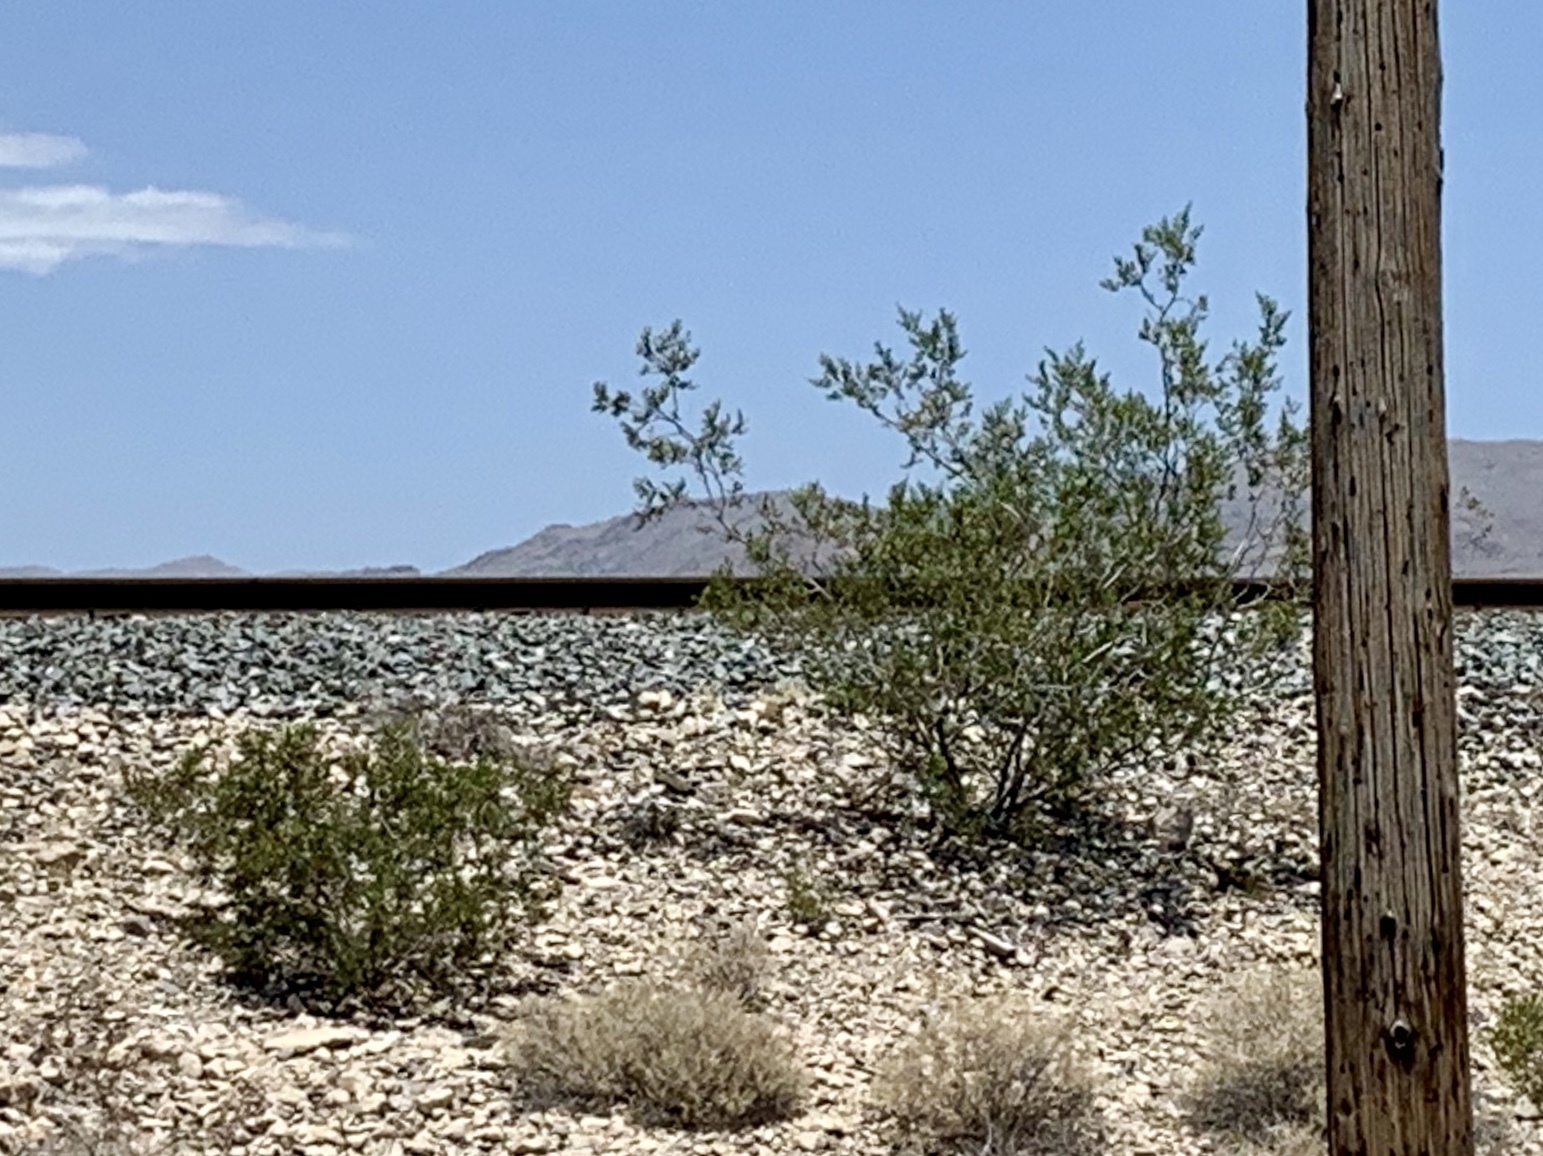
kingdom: Plantae
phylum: Tracheophyta
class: Magnoliopsida
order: Zygophyllales
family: Zygophyllaceae
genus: Larrea
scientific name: Larrea tridentata
